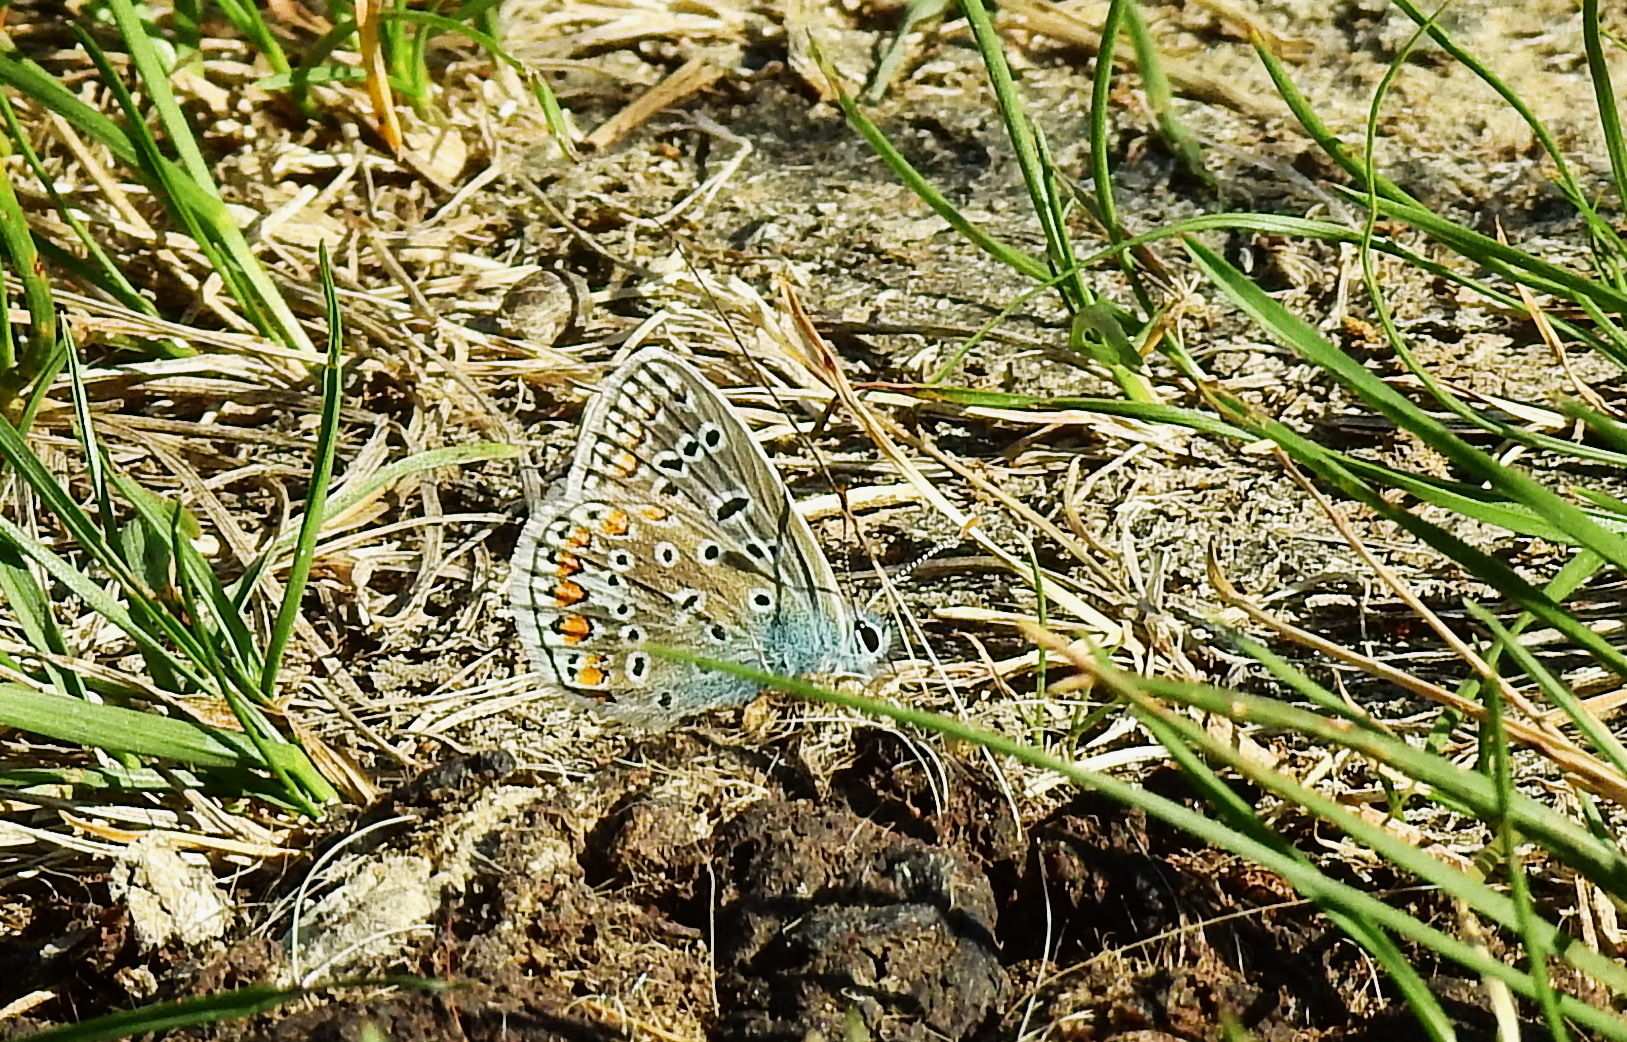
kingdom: Animalia
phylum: Arthropoda
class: Insecta
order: Lepidoptera
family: Lycaenidae
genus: Polyommatus
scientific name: Polyommatus icarus
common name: Common blue
